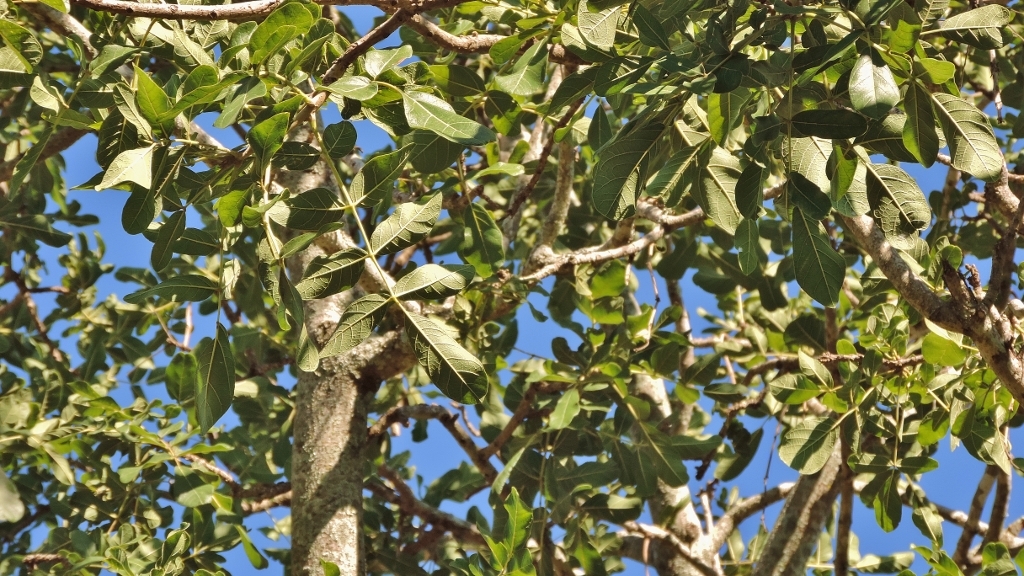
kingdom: Plantae
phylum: Tracheophyta
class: Magnoliopsida
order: Lamiales
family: Bignoniaceae
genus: Kigelia
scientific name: Kigelia africana
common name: Sausage tree
